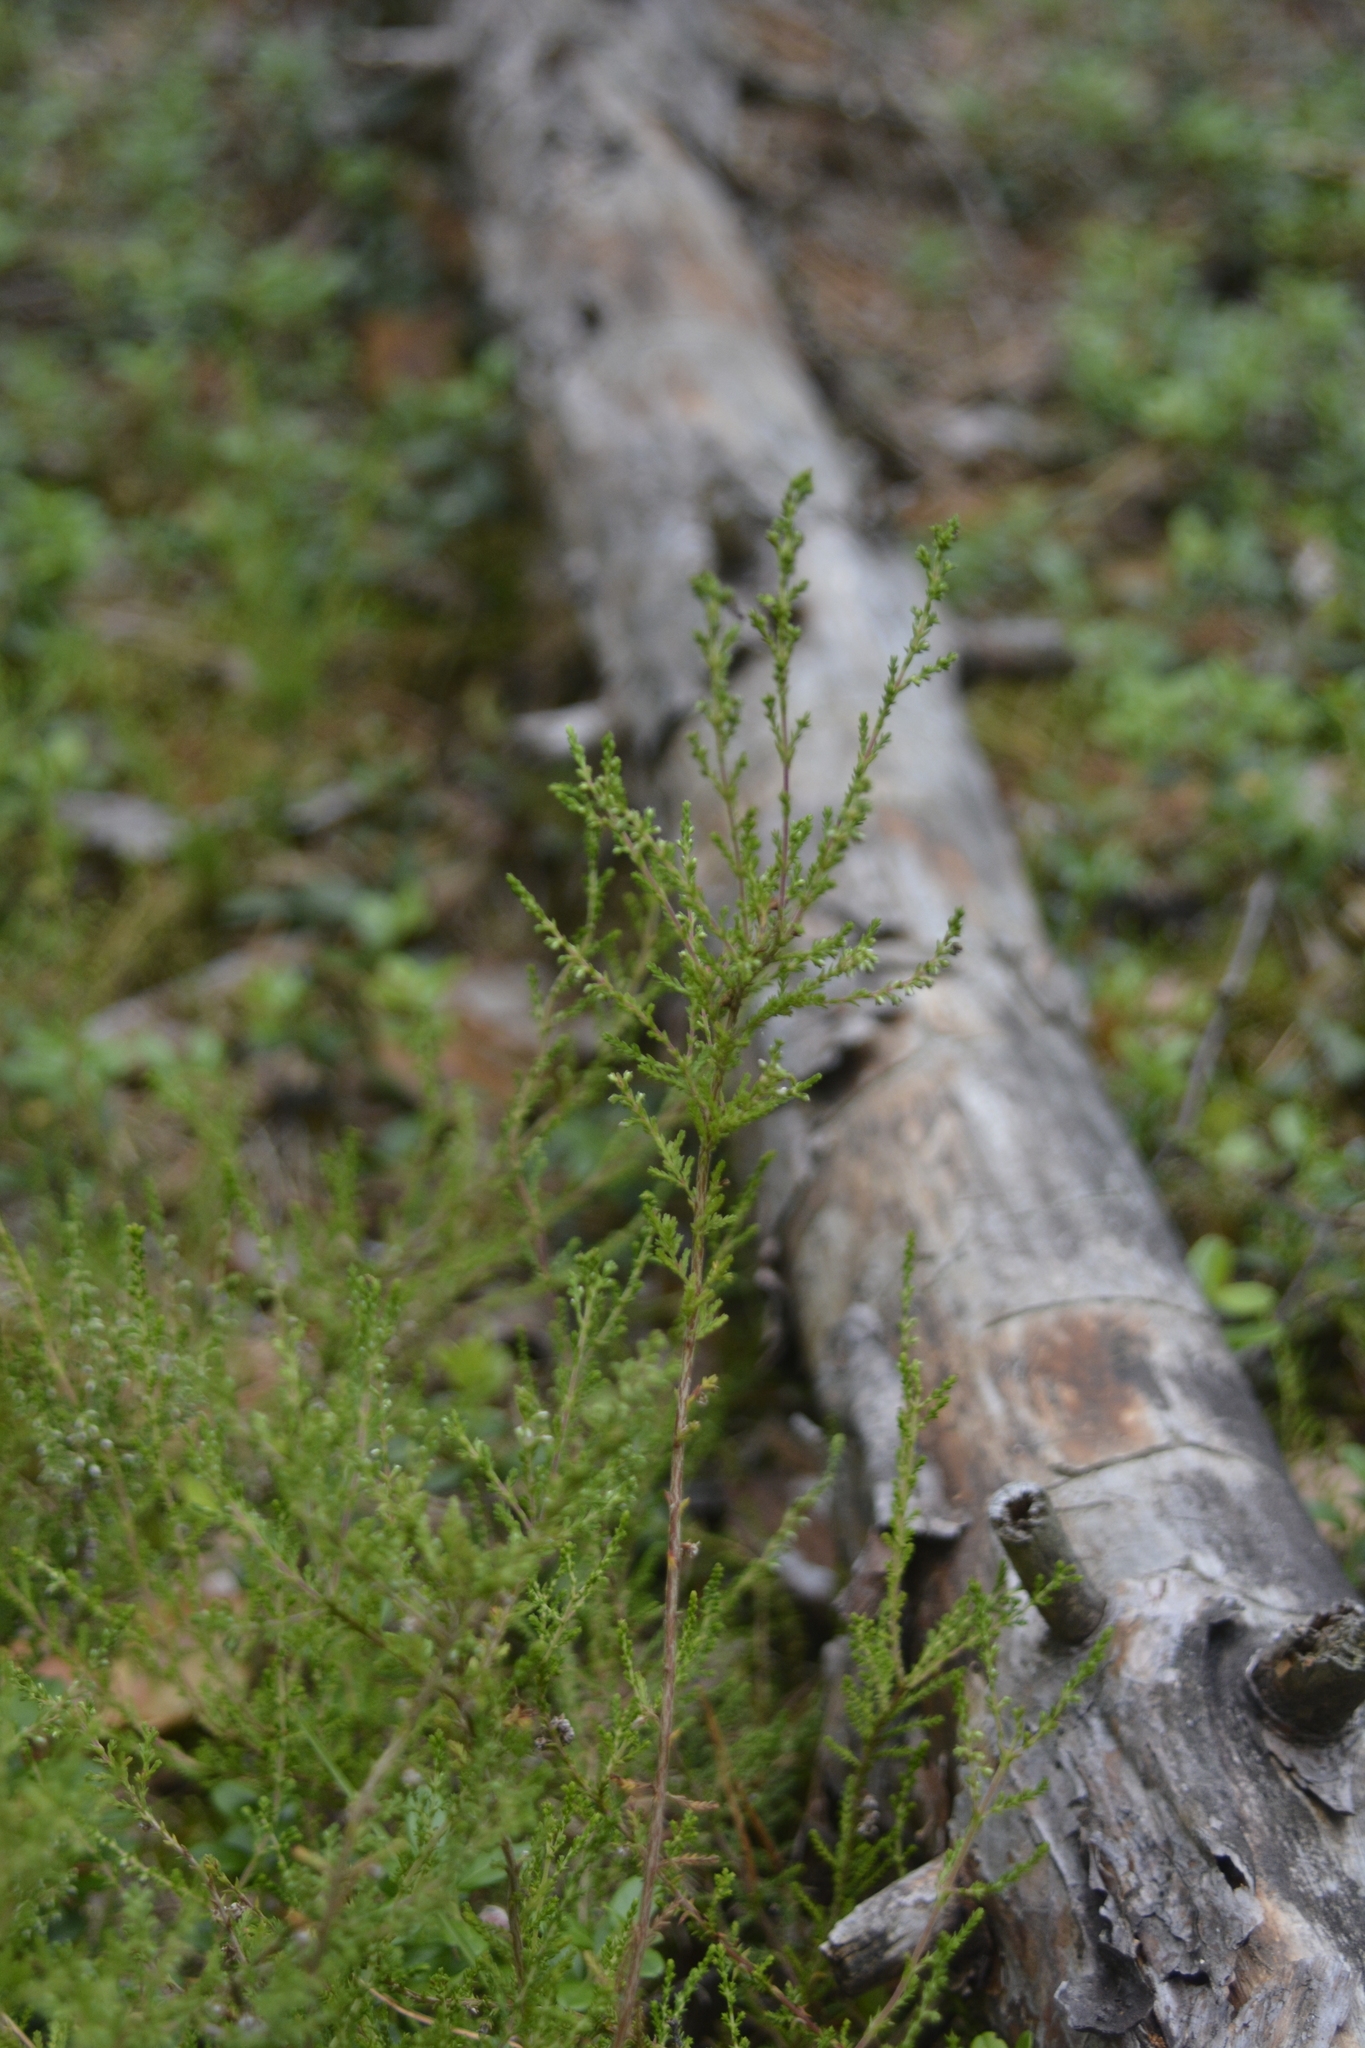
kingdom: Plantae
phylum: Tracheophyta
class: Magnoliopsida
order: Ericales
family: Ericaceae
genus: Calluna
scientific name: Calluna vulgaris
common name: Heather
